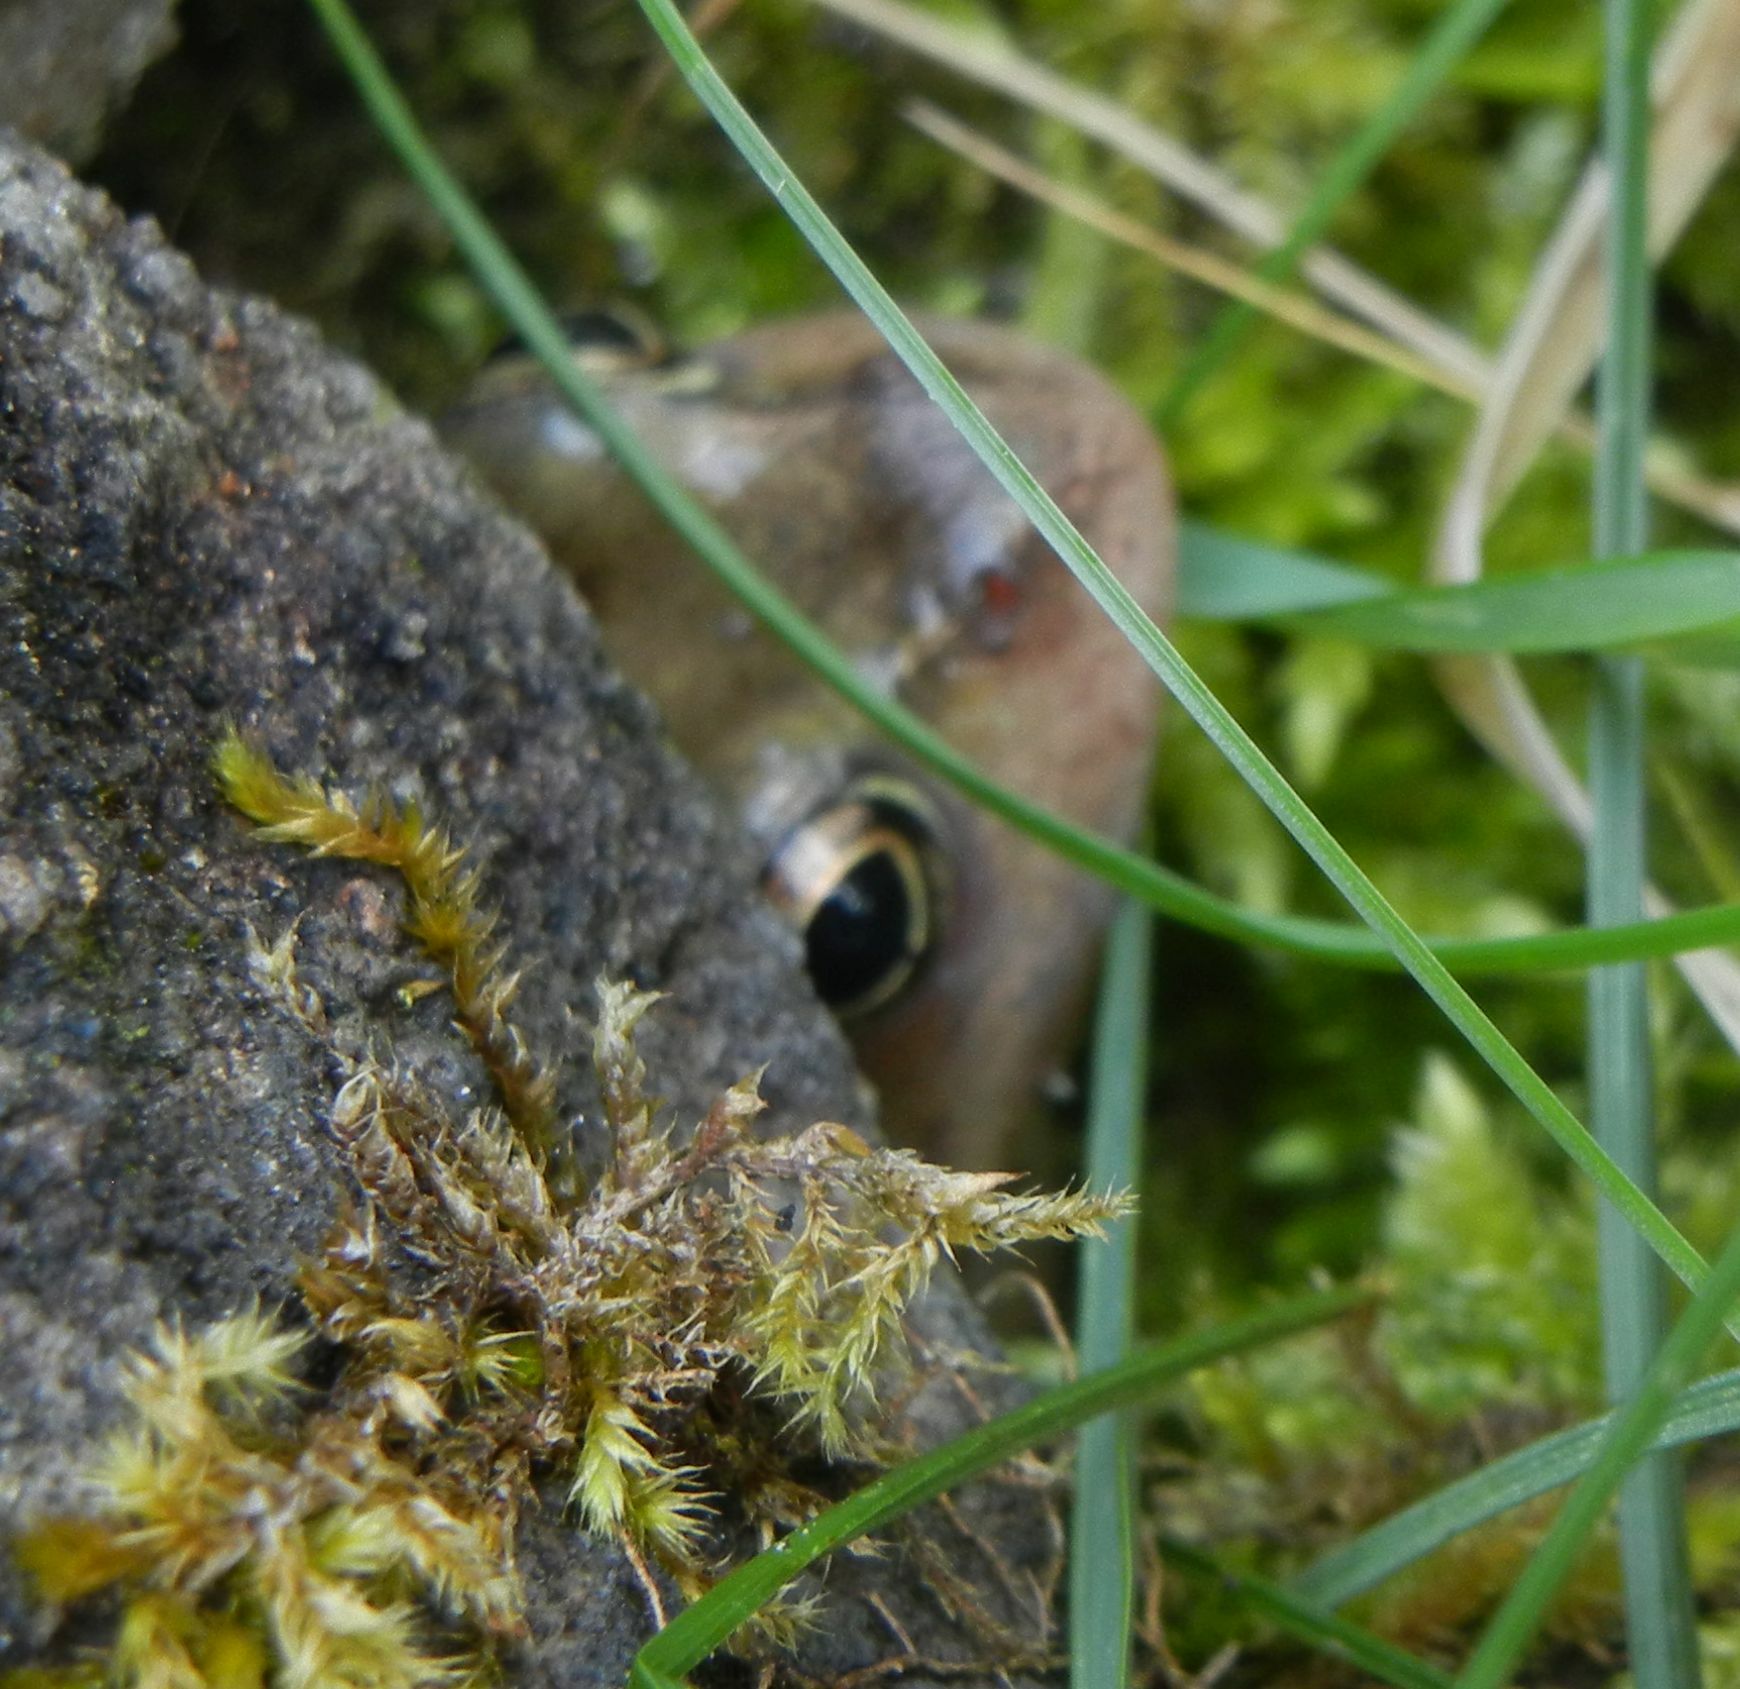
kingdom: Animalia
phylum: Chordata
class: Amphibia
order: Anura
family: Ranidae
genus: Rana
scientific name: Rana temporaria
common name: Common frog
